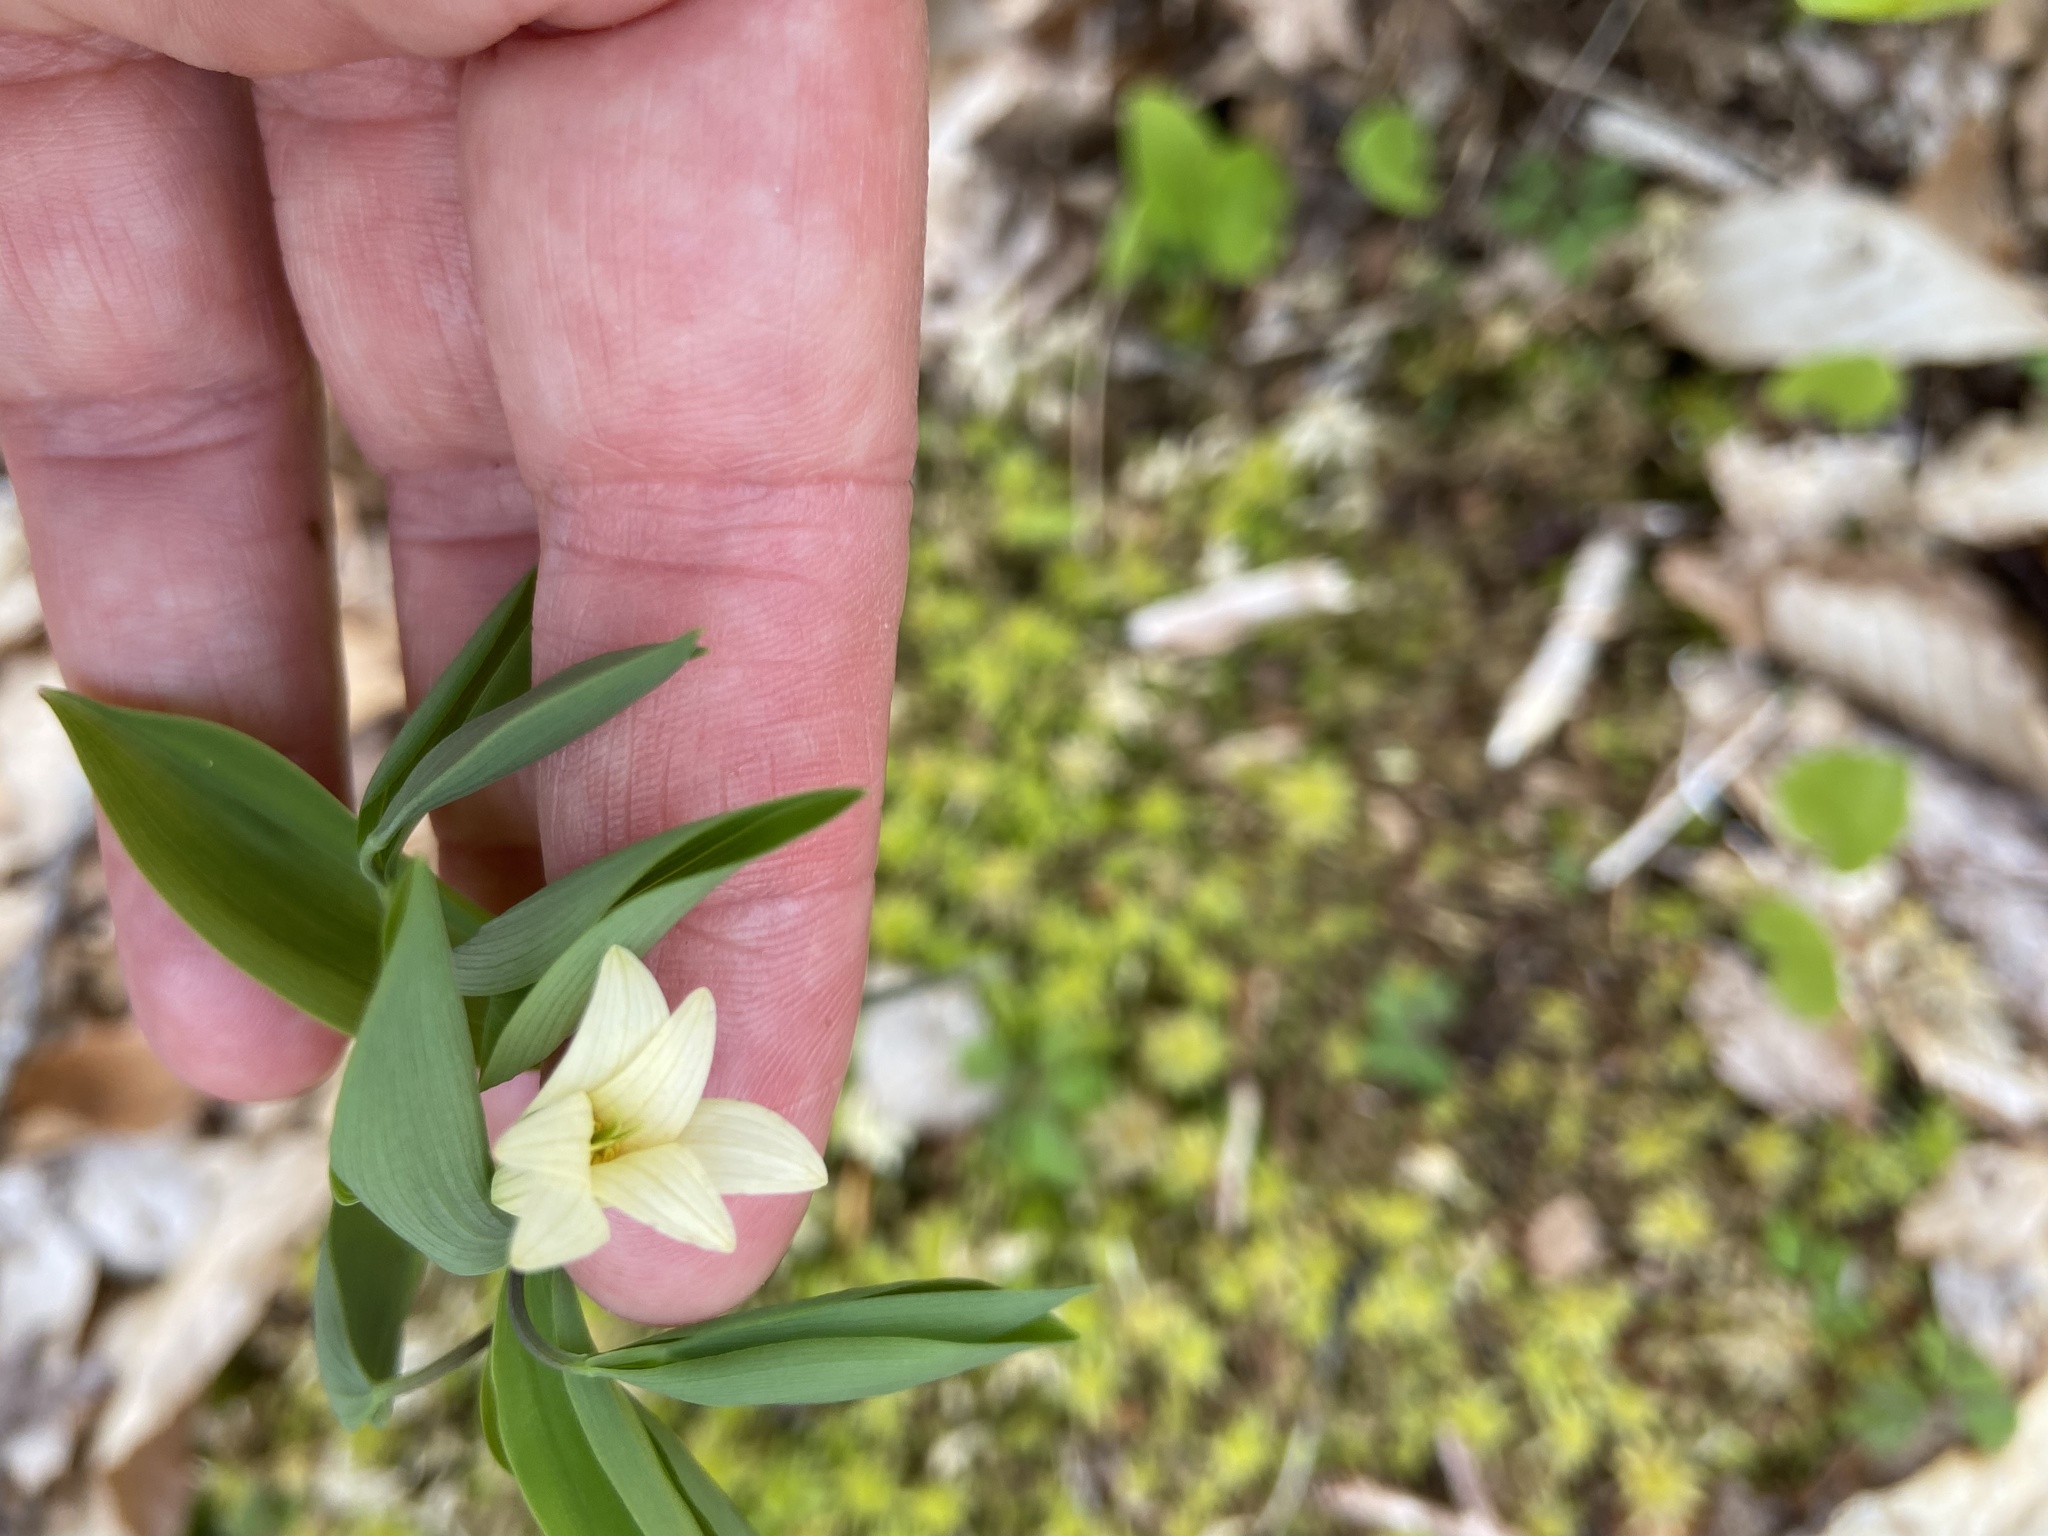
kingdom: Plantae
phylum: Tracheophyta
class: Liliopsida
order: Liliales
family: Colchicaceae
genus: Uvularia
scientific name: Uvularia sessilifolia
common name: Straw-lily
